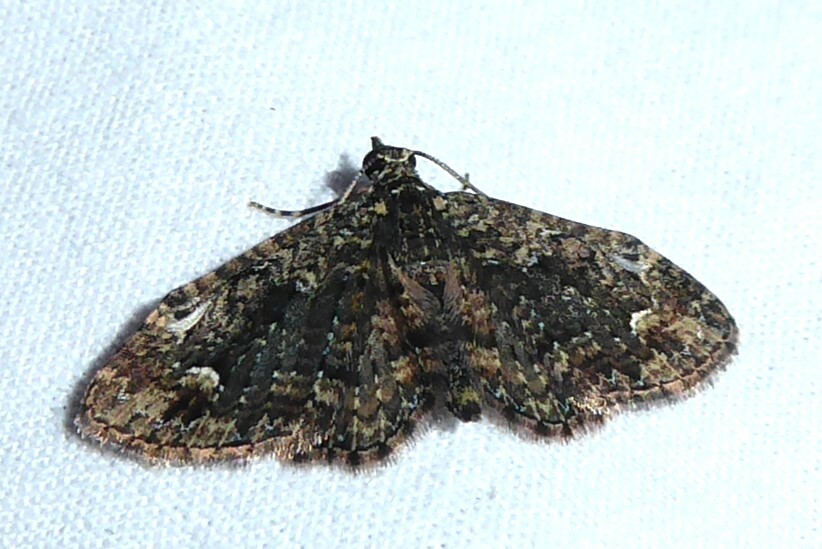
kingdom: Animalia
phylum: Arthropoda
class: Insecta
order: Lepidoptera
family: Geometridae
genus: Pasiphilodes
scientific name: Pasiphilodes testulata
